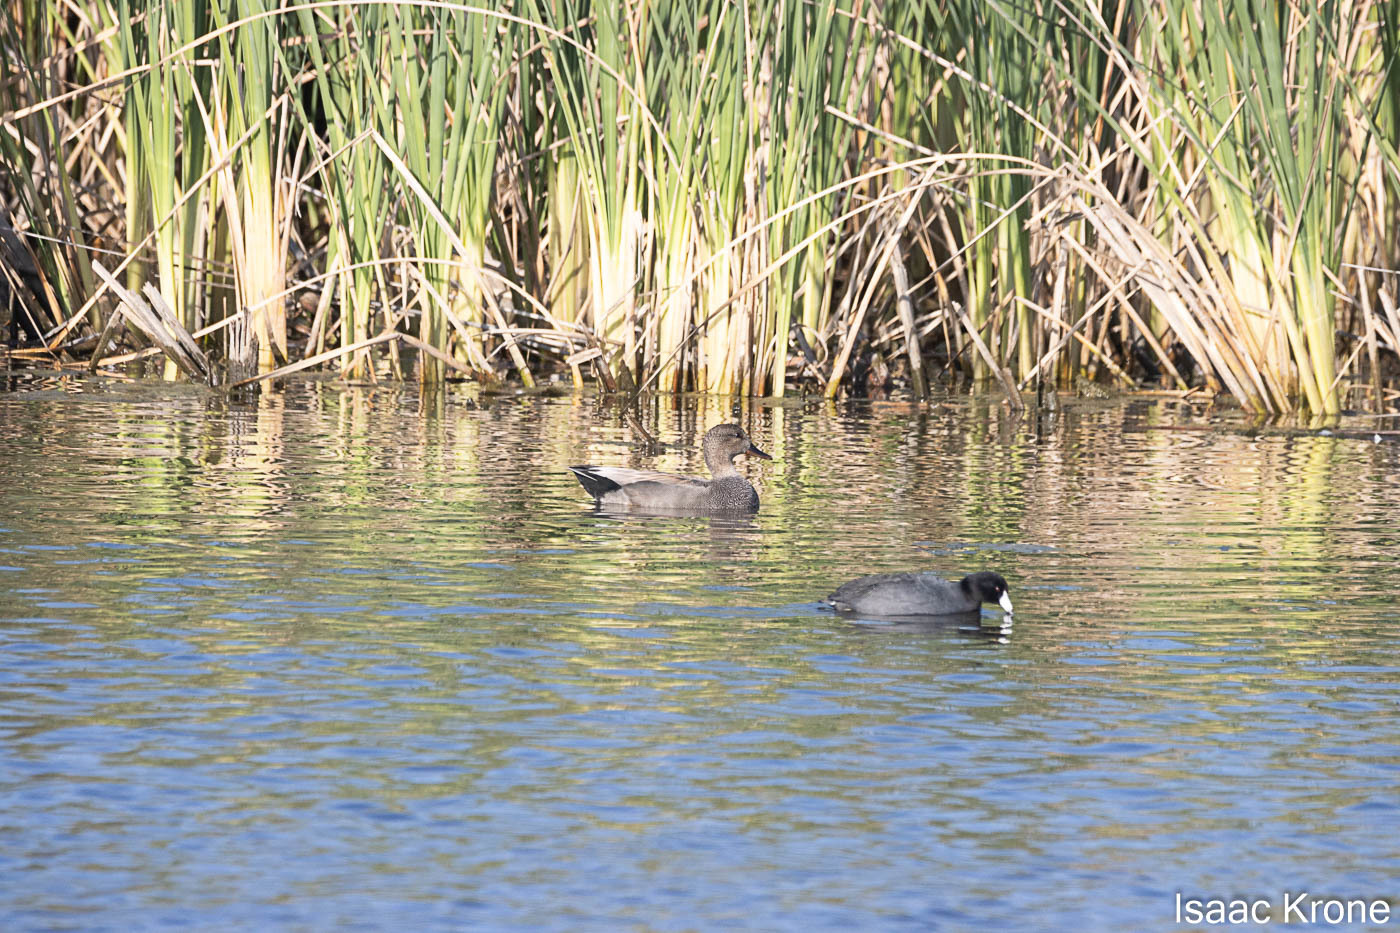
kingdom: Animalia
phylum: Chordata
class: Aves
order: Anseriformes
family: Anatidae
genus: Mareca
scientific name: Mareca strepera
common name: Gadwall
